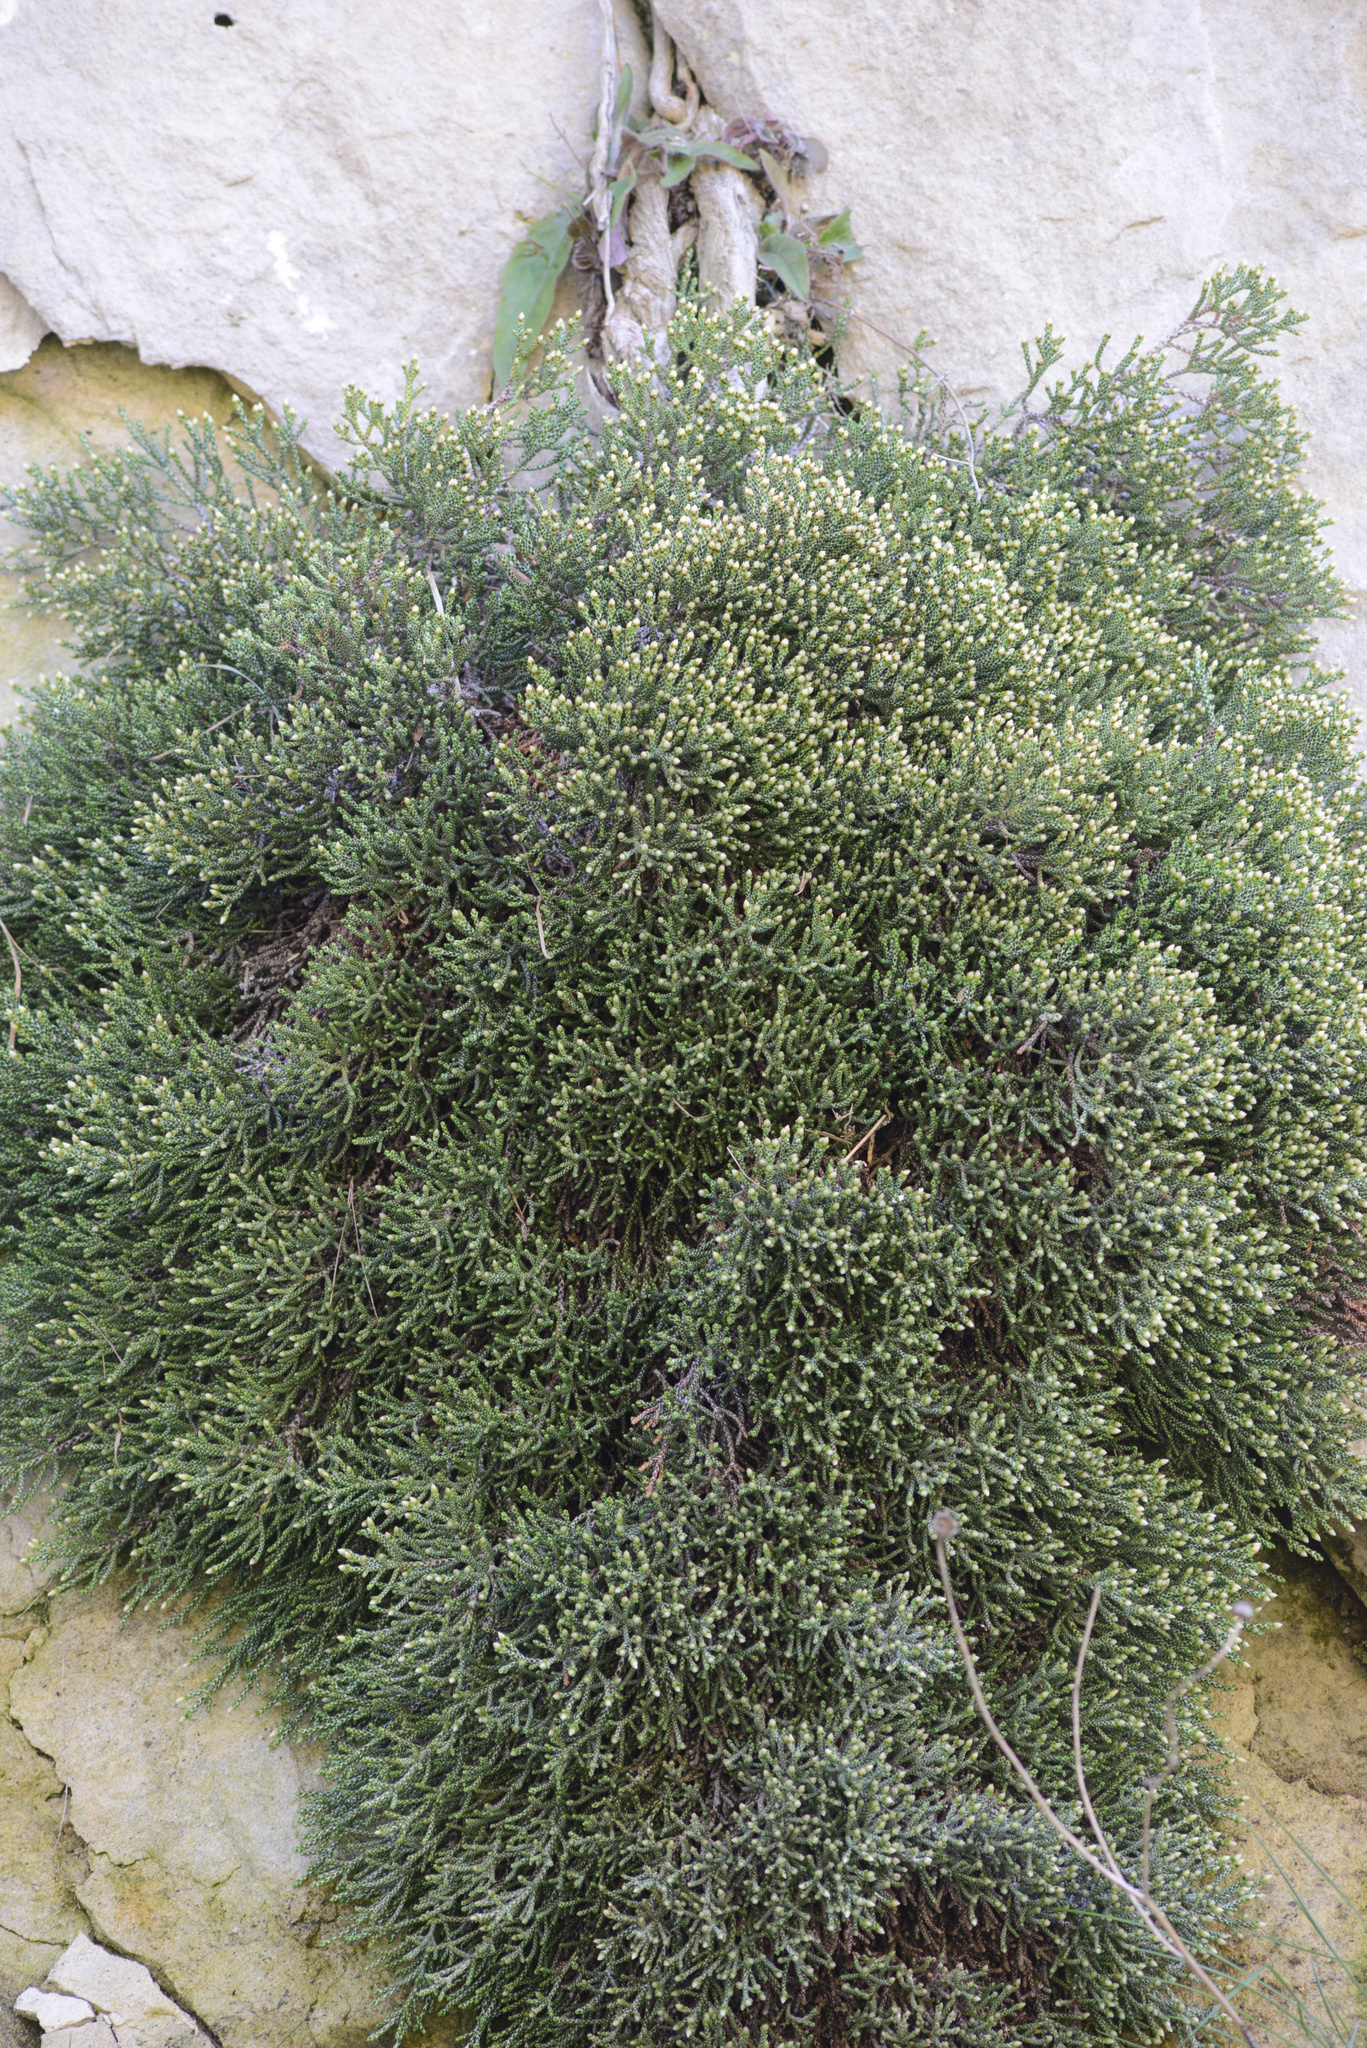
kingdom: Plantae
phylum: Tracheophyta
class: Magnoliopsida
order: Asterales
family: Asteraceae
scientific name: Asteraceae
